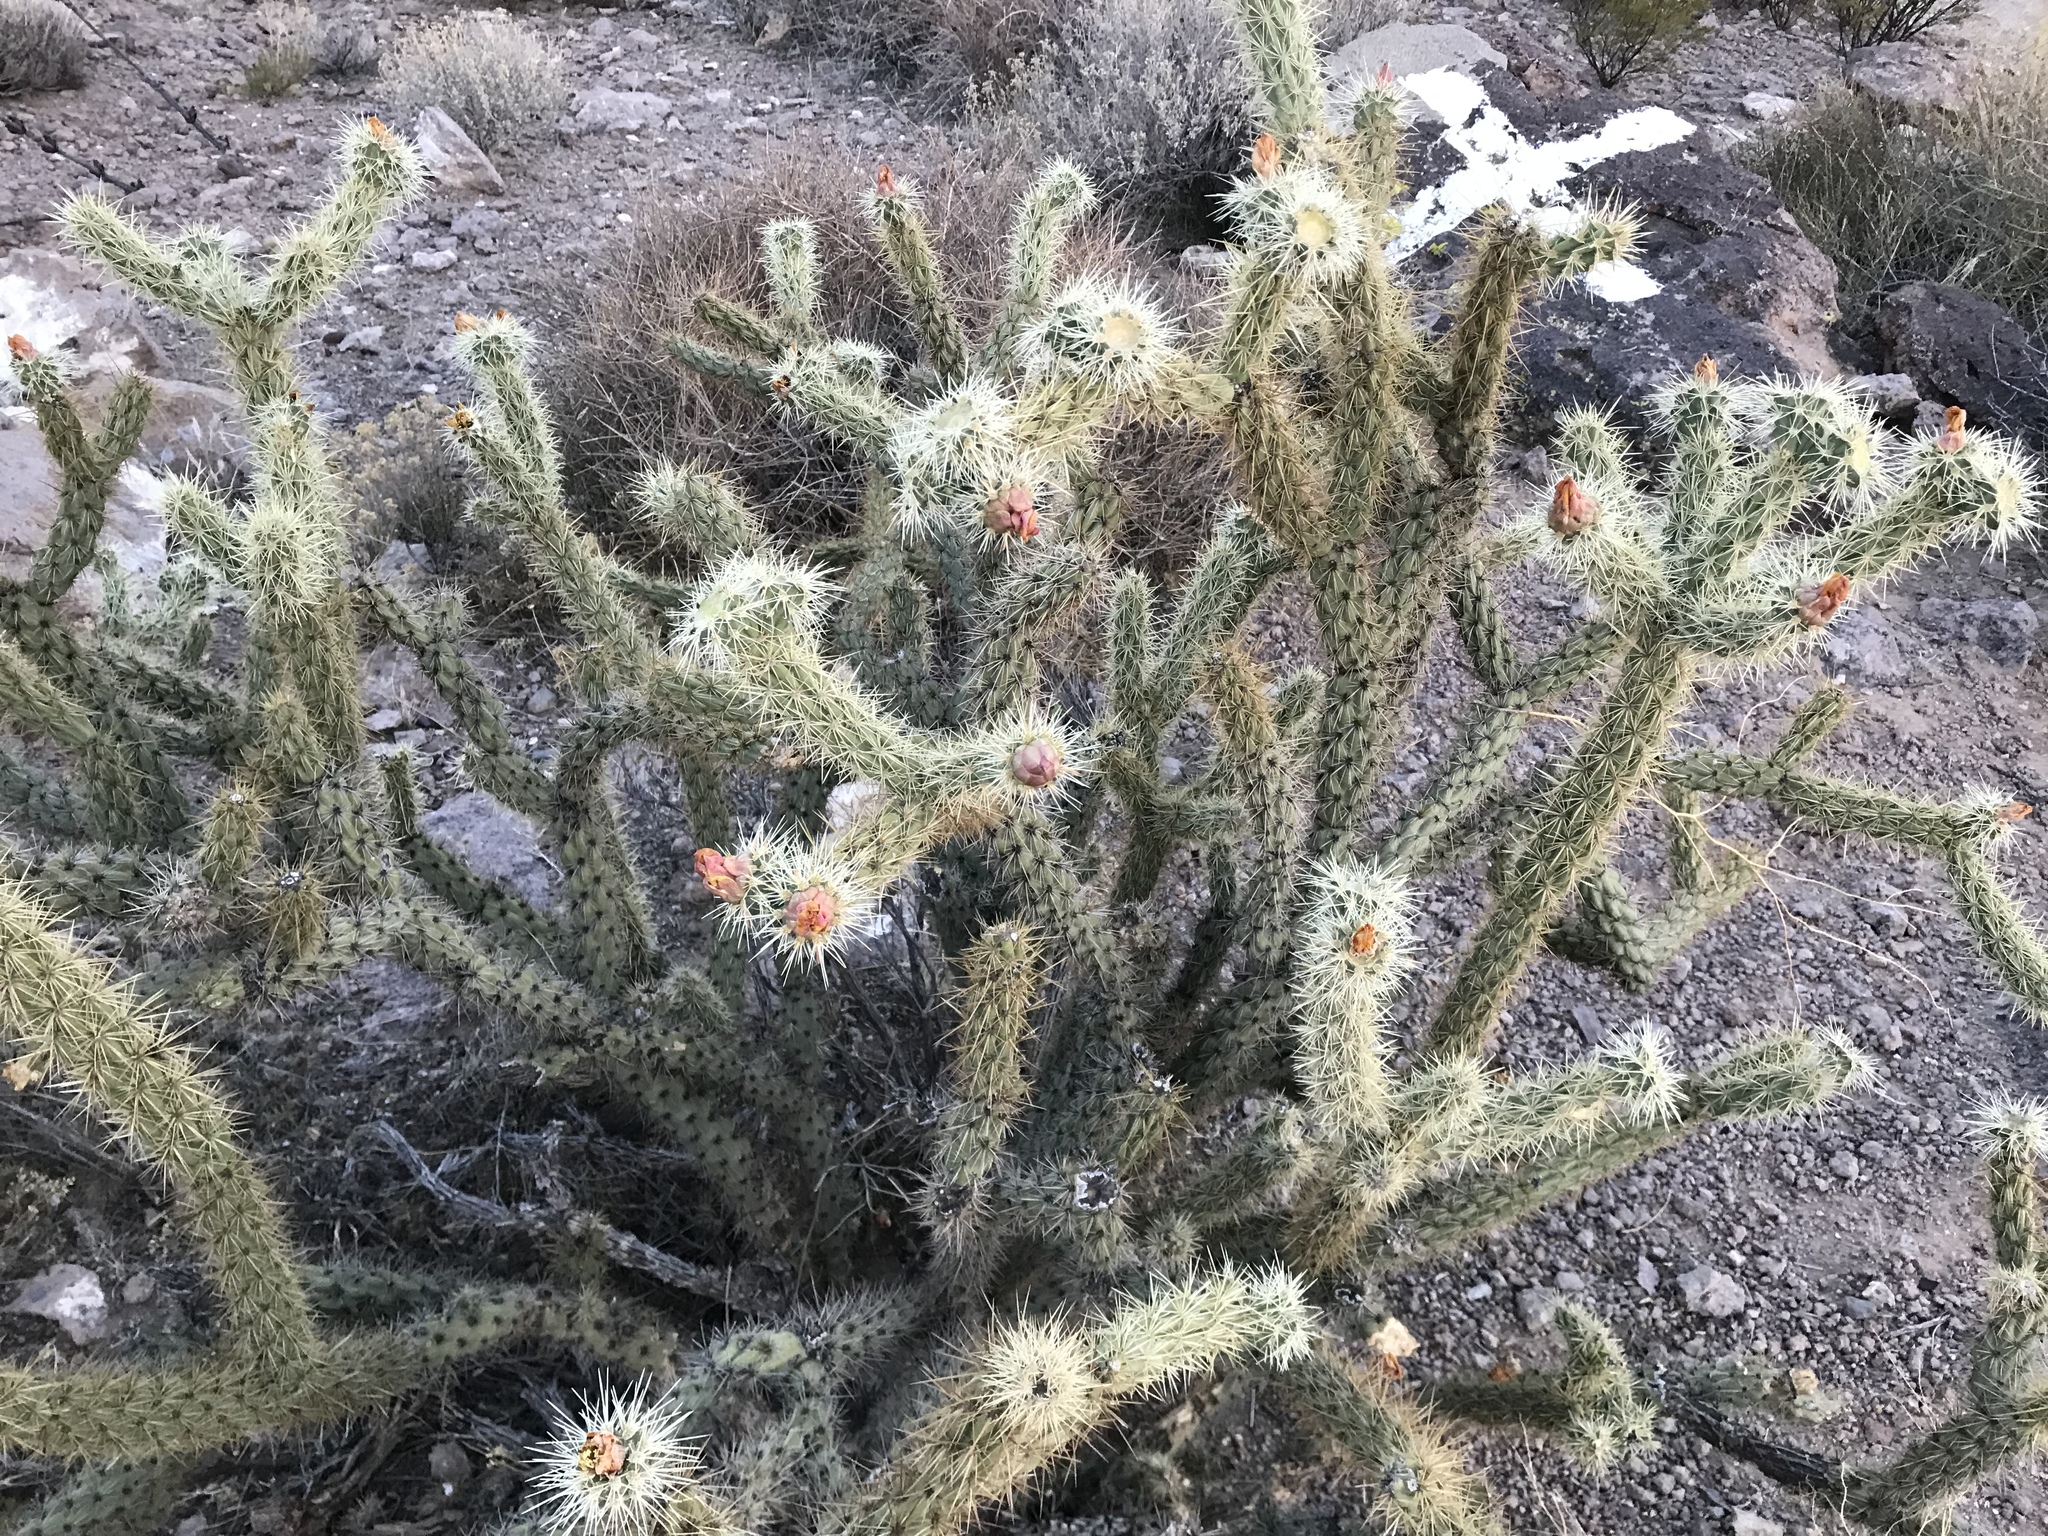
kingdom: Plantae
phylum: Tracheophyta
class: Magnoliopsida
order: Caryophyllales
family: Cactaceae
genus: Cylindropuntia
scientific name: Cylindropuntia acanthocarpa
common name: Buckhorn cholla
